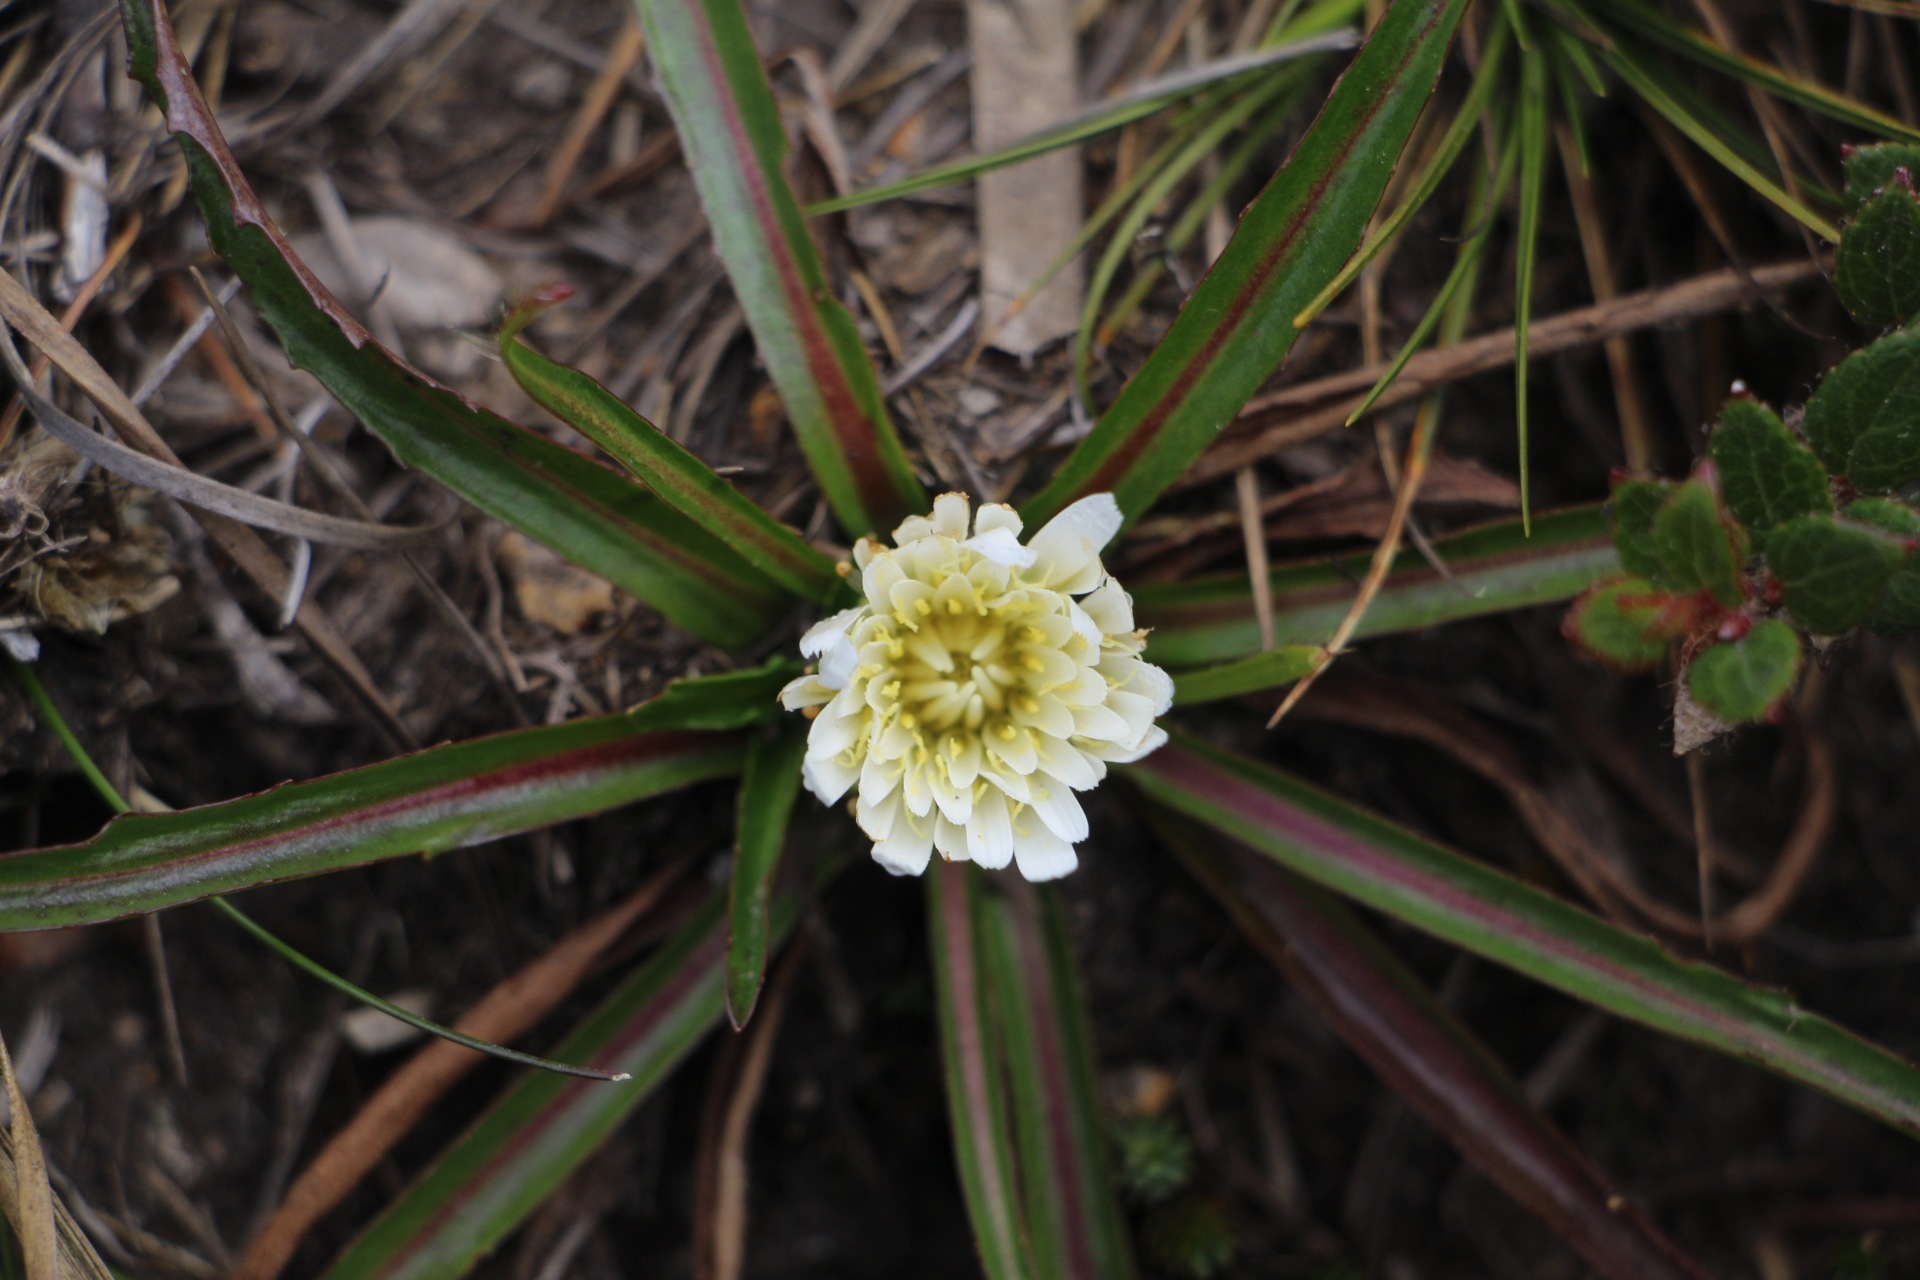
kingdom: Plantae
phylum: Tracheophyta
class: Magnoliopsida
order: Asterales
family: Asteraceae
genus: Hypochaeris
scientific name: Hypochaeris sessiliflora
